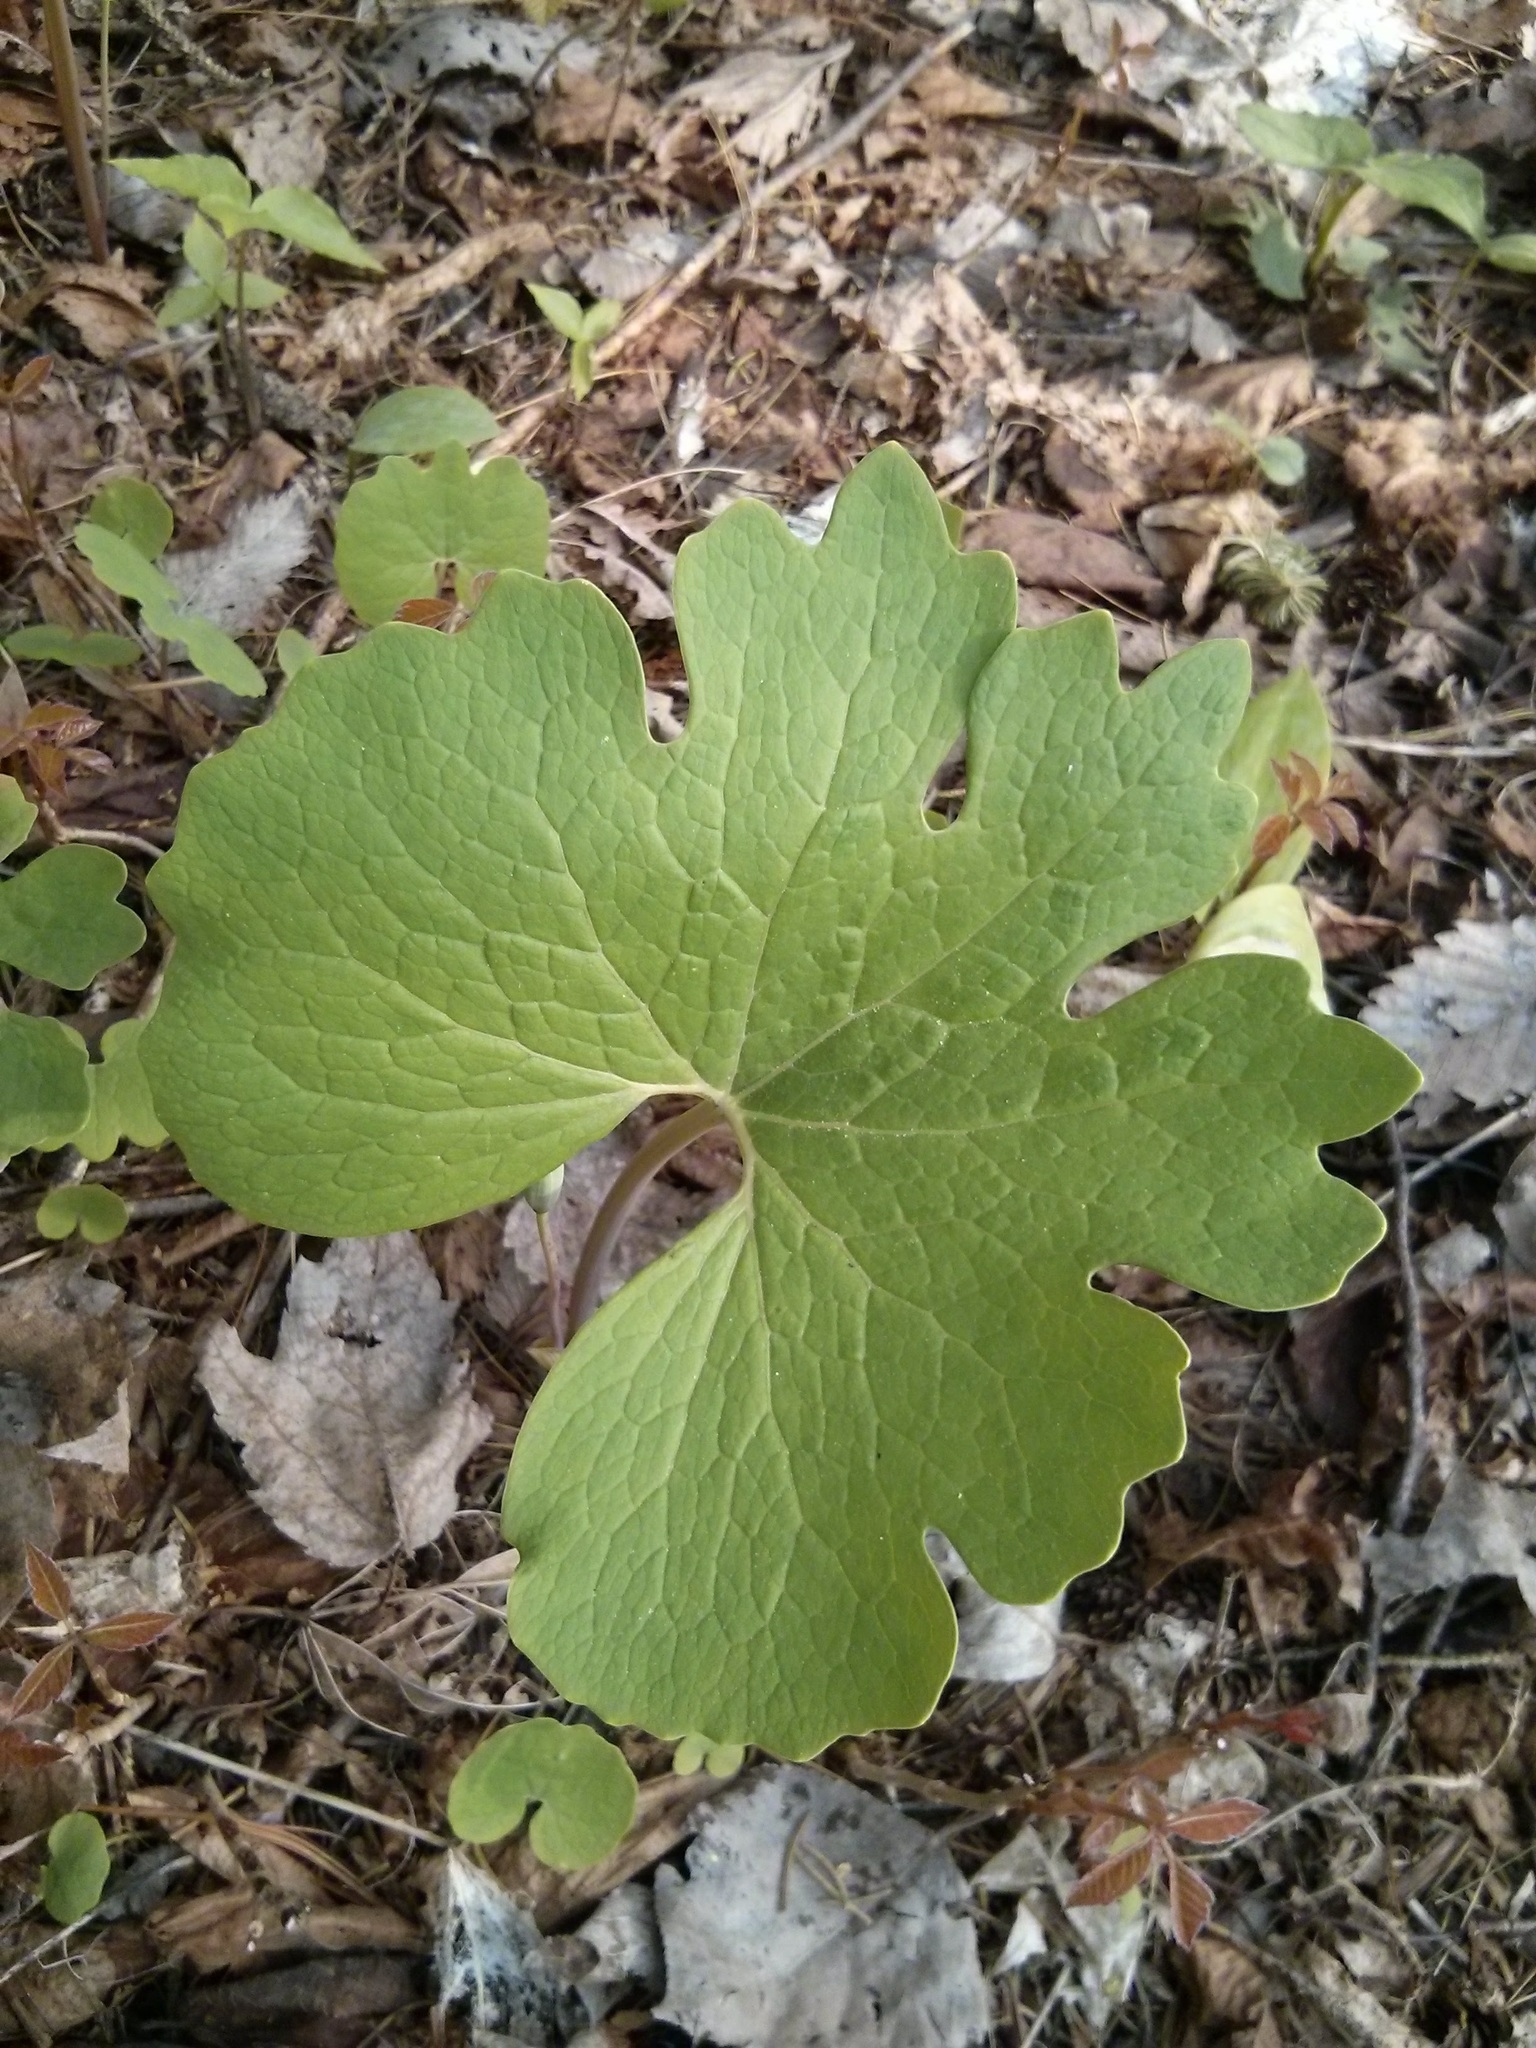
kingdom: Plantae
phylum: Tracheophyta
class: Magnoliopsida
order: Ranunculales
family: Papaveraceae
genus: Sanguinaria
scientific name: Sanguinaria canadensis
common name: Bloodroot
